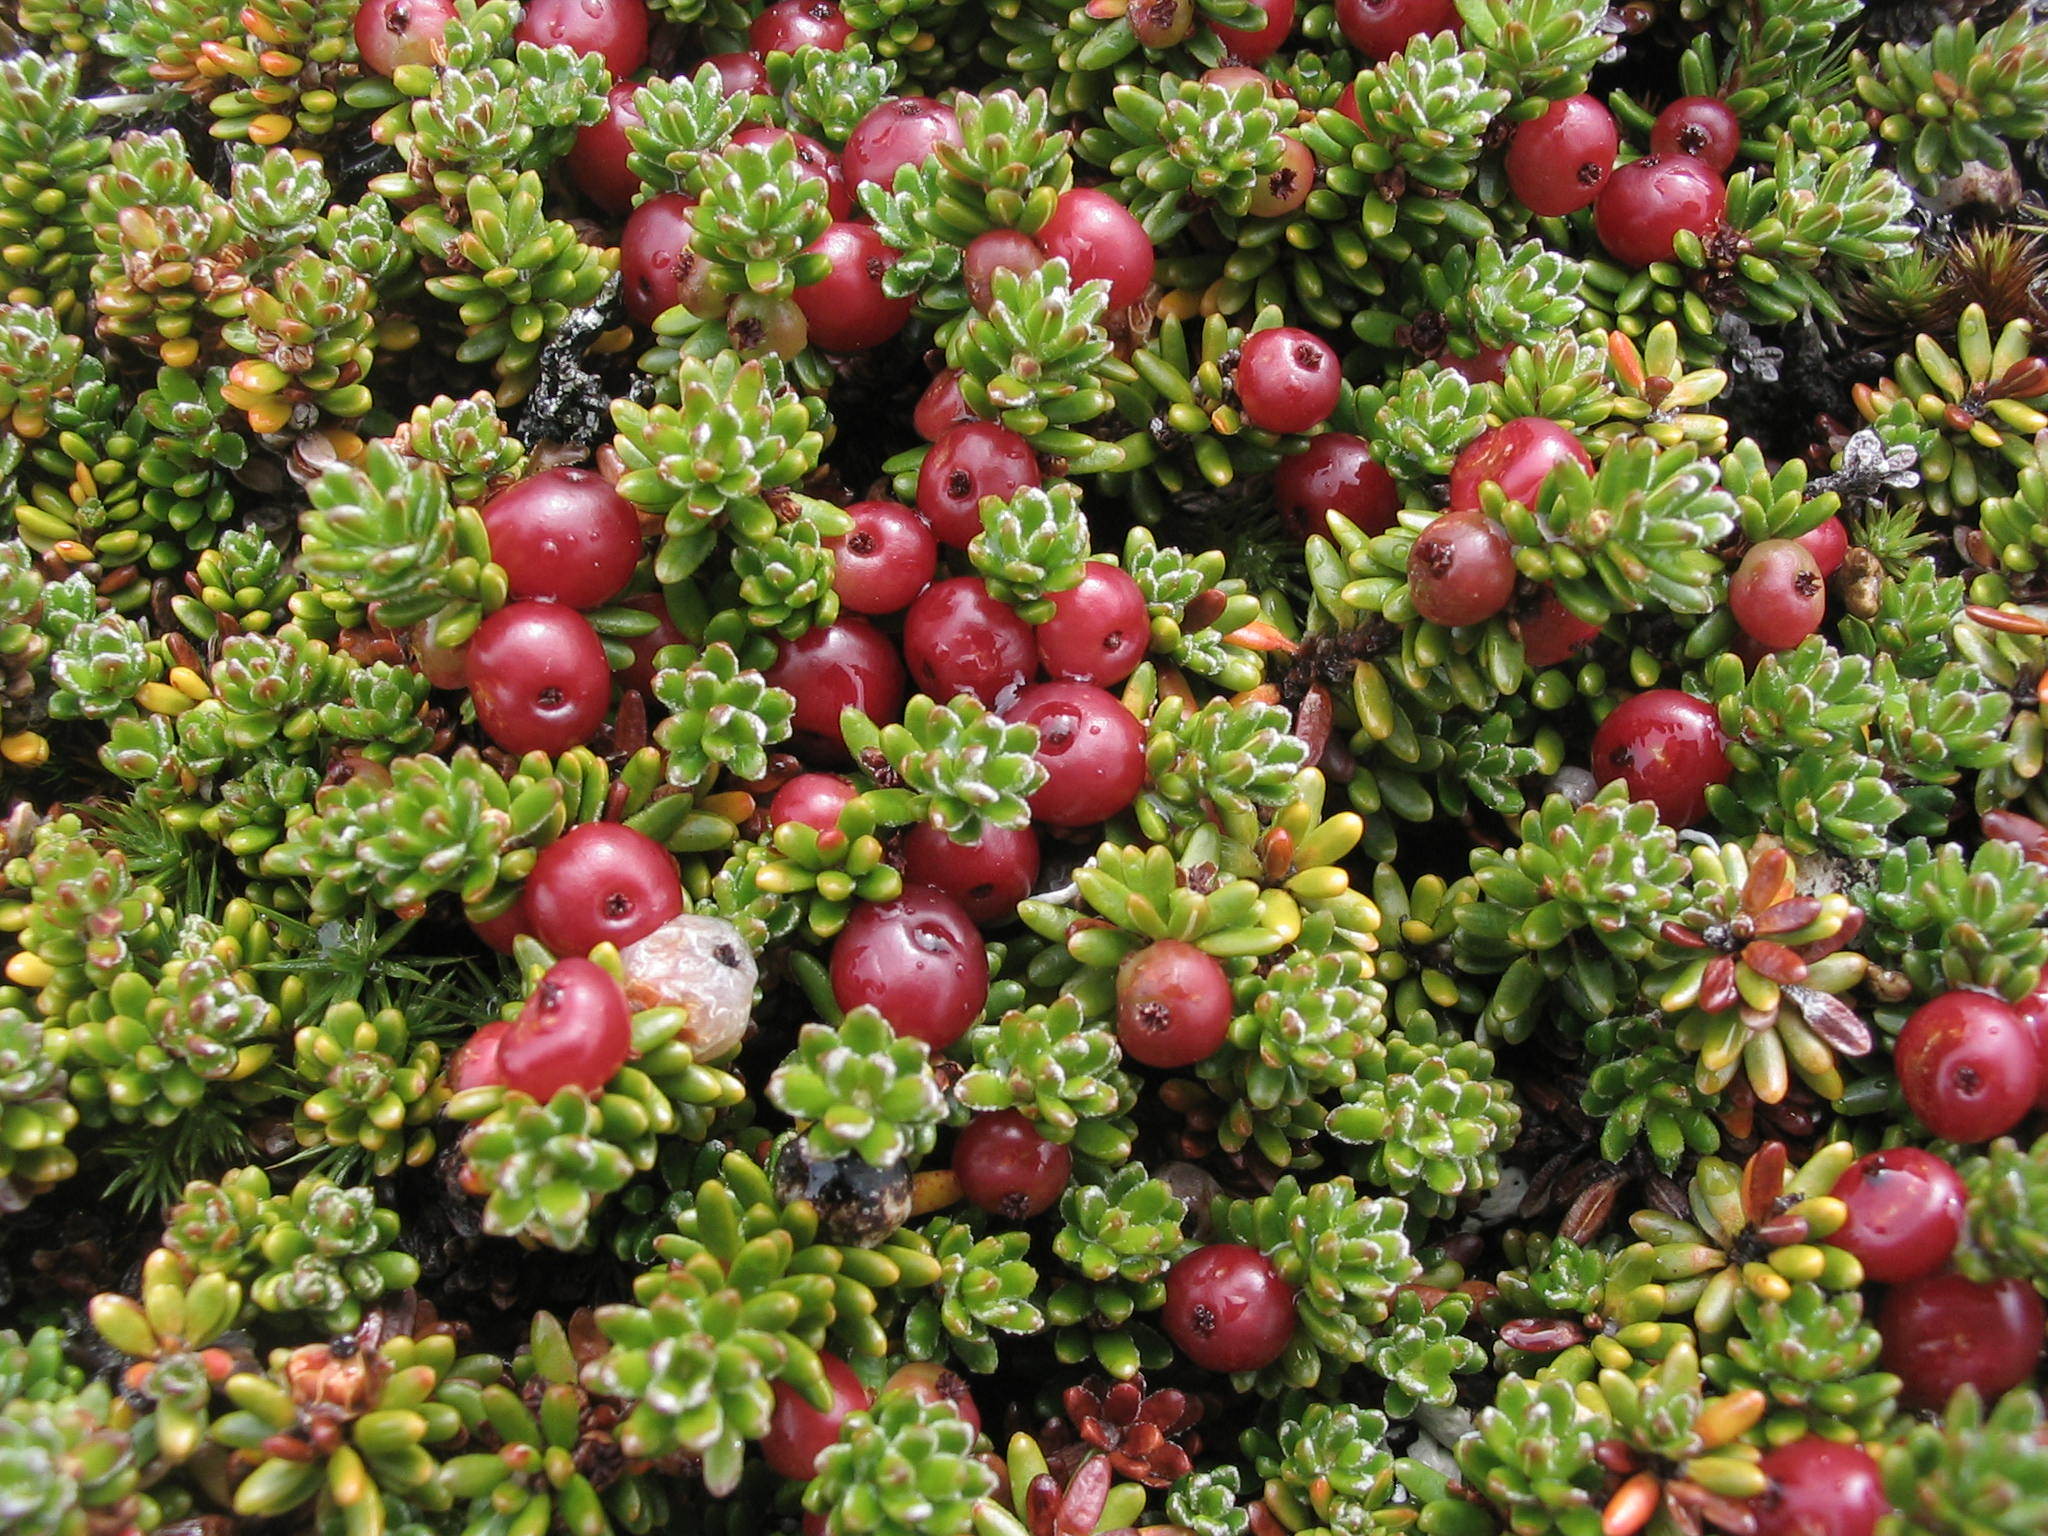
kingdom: Plantae
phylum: Tracheophyta
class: Magnoliopsida
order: Ericales
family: Ericaceae
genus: Empetrum
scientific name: Empetrum rubrum
